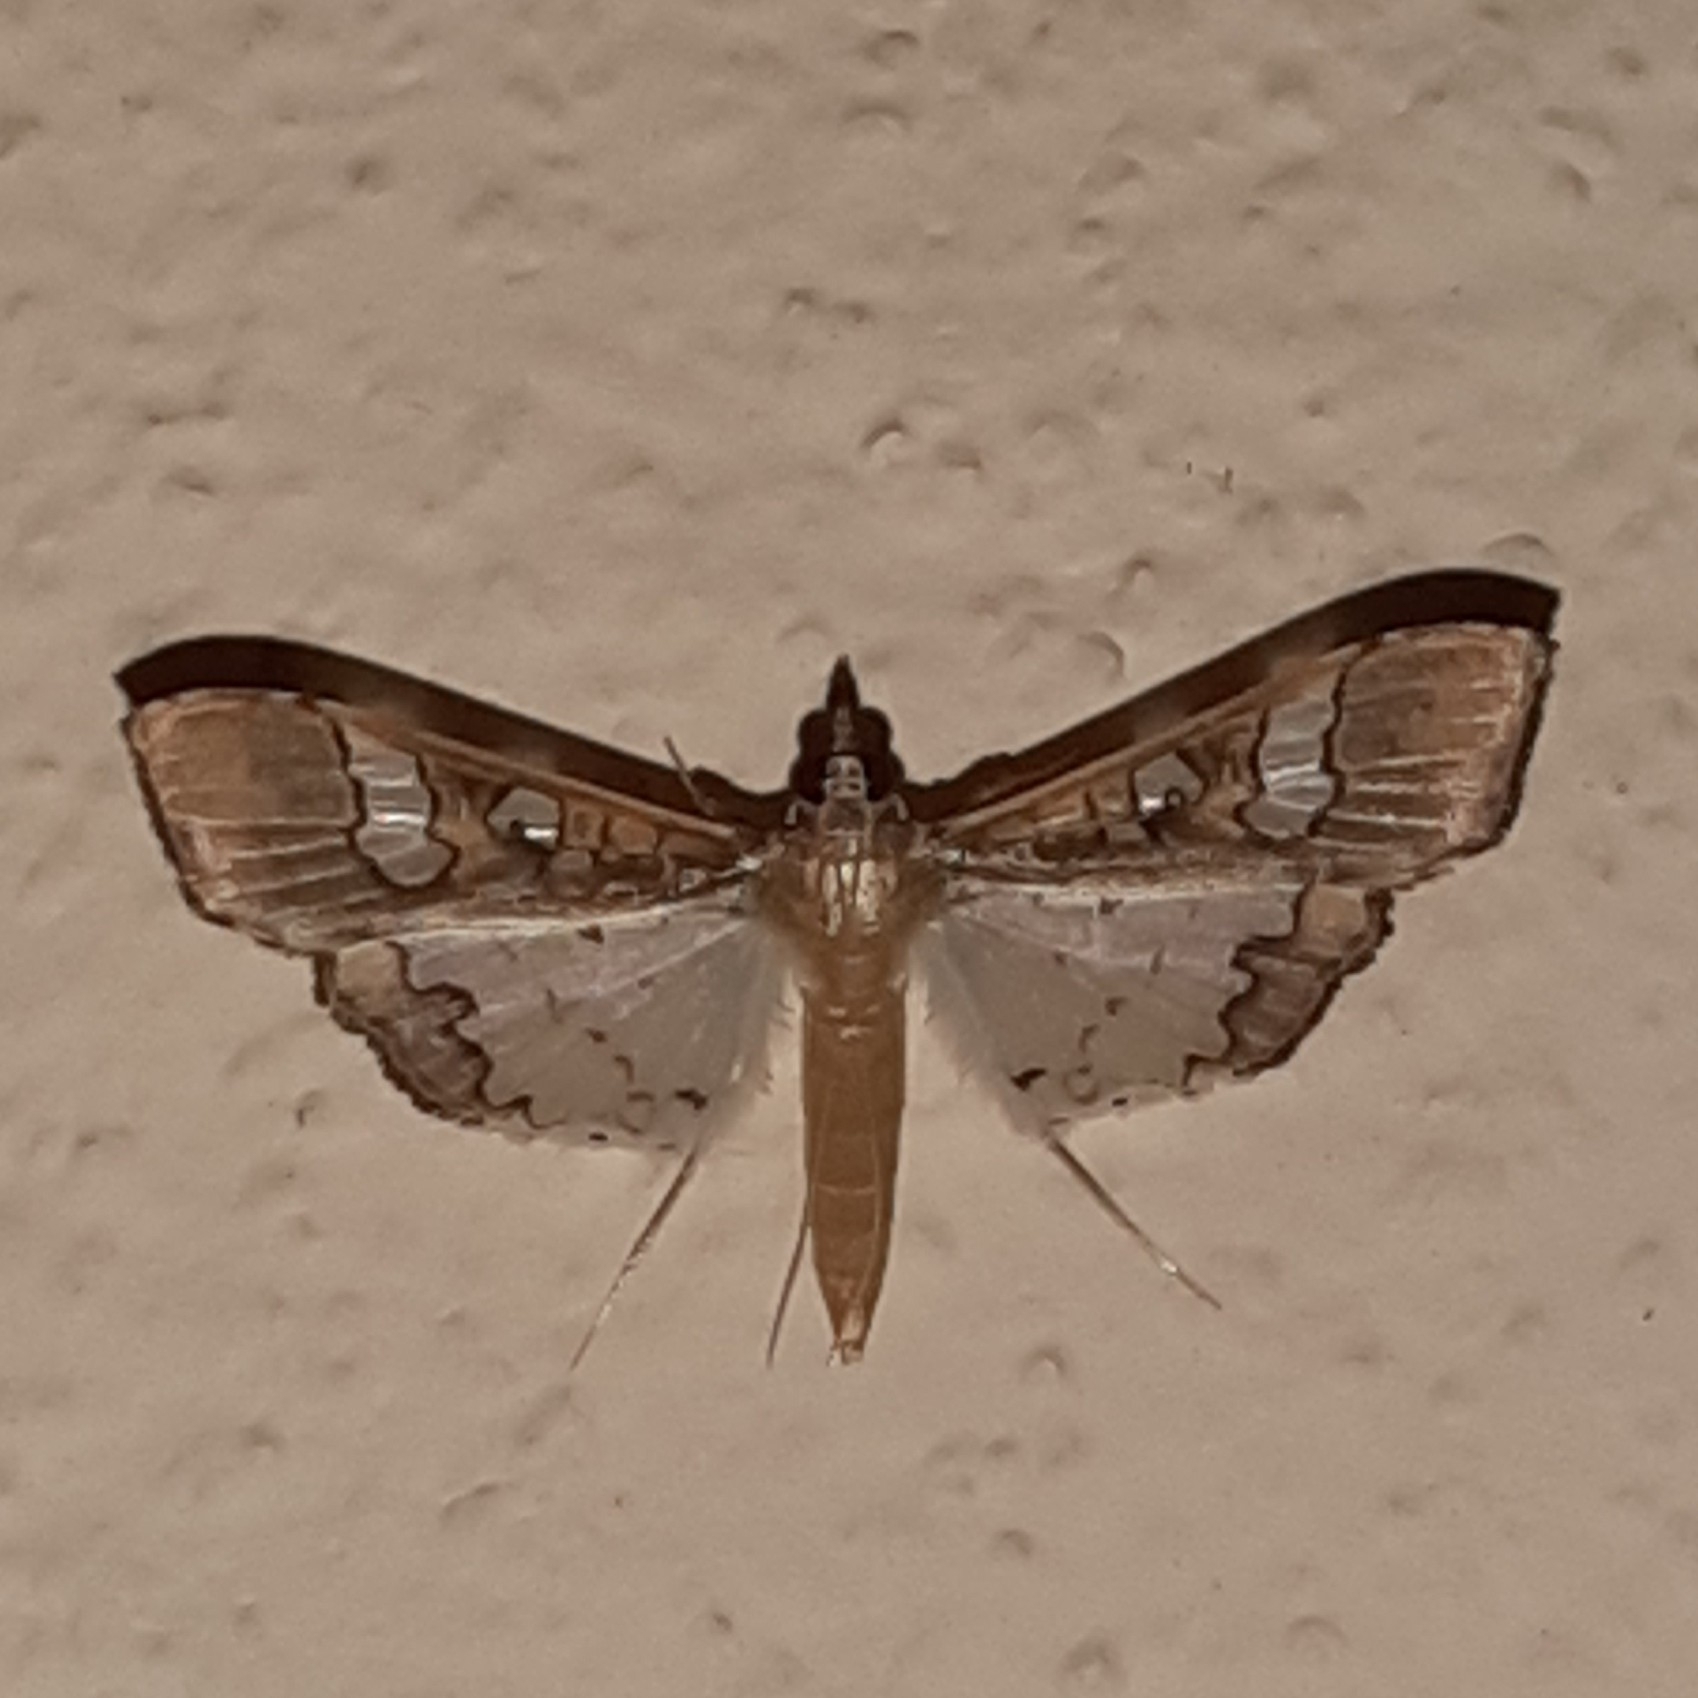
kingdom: Animalia
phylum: Arthropoda
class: Insecta
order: Lepidoptera
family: Crambidae
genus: Maruca
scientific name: Maruca vitrata
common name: Maruca pod borer
